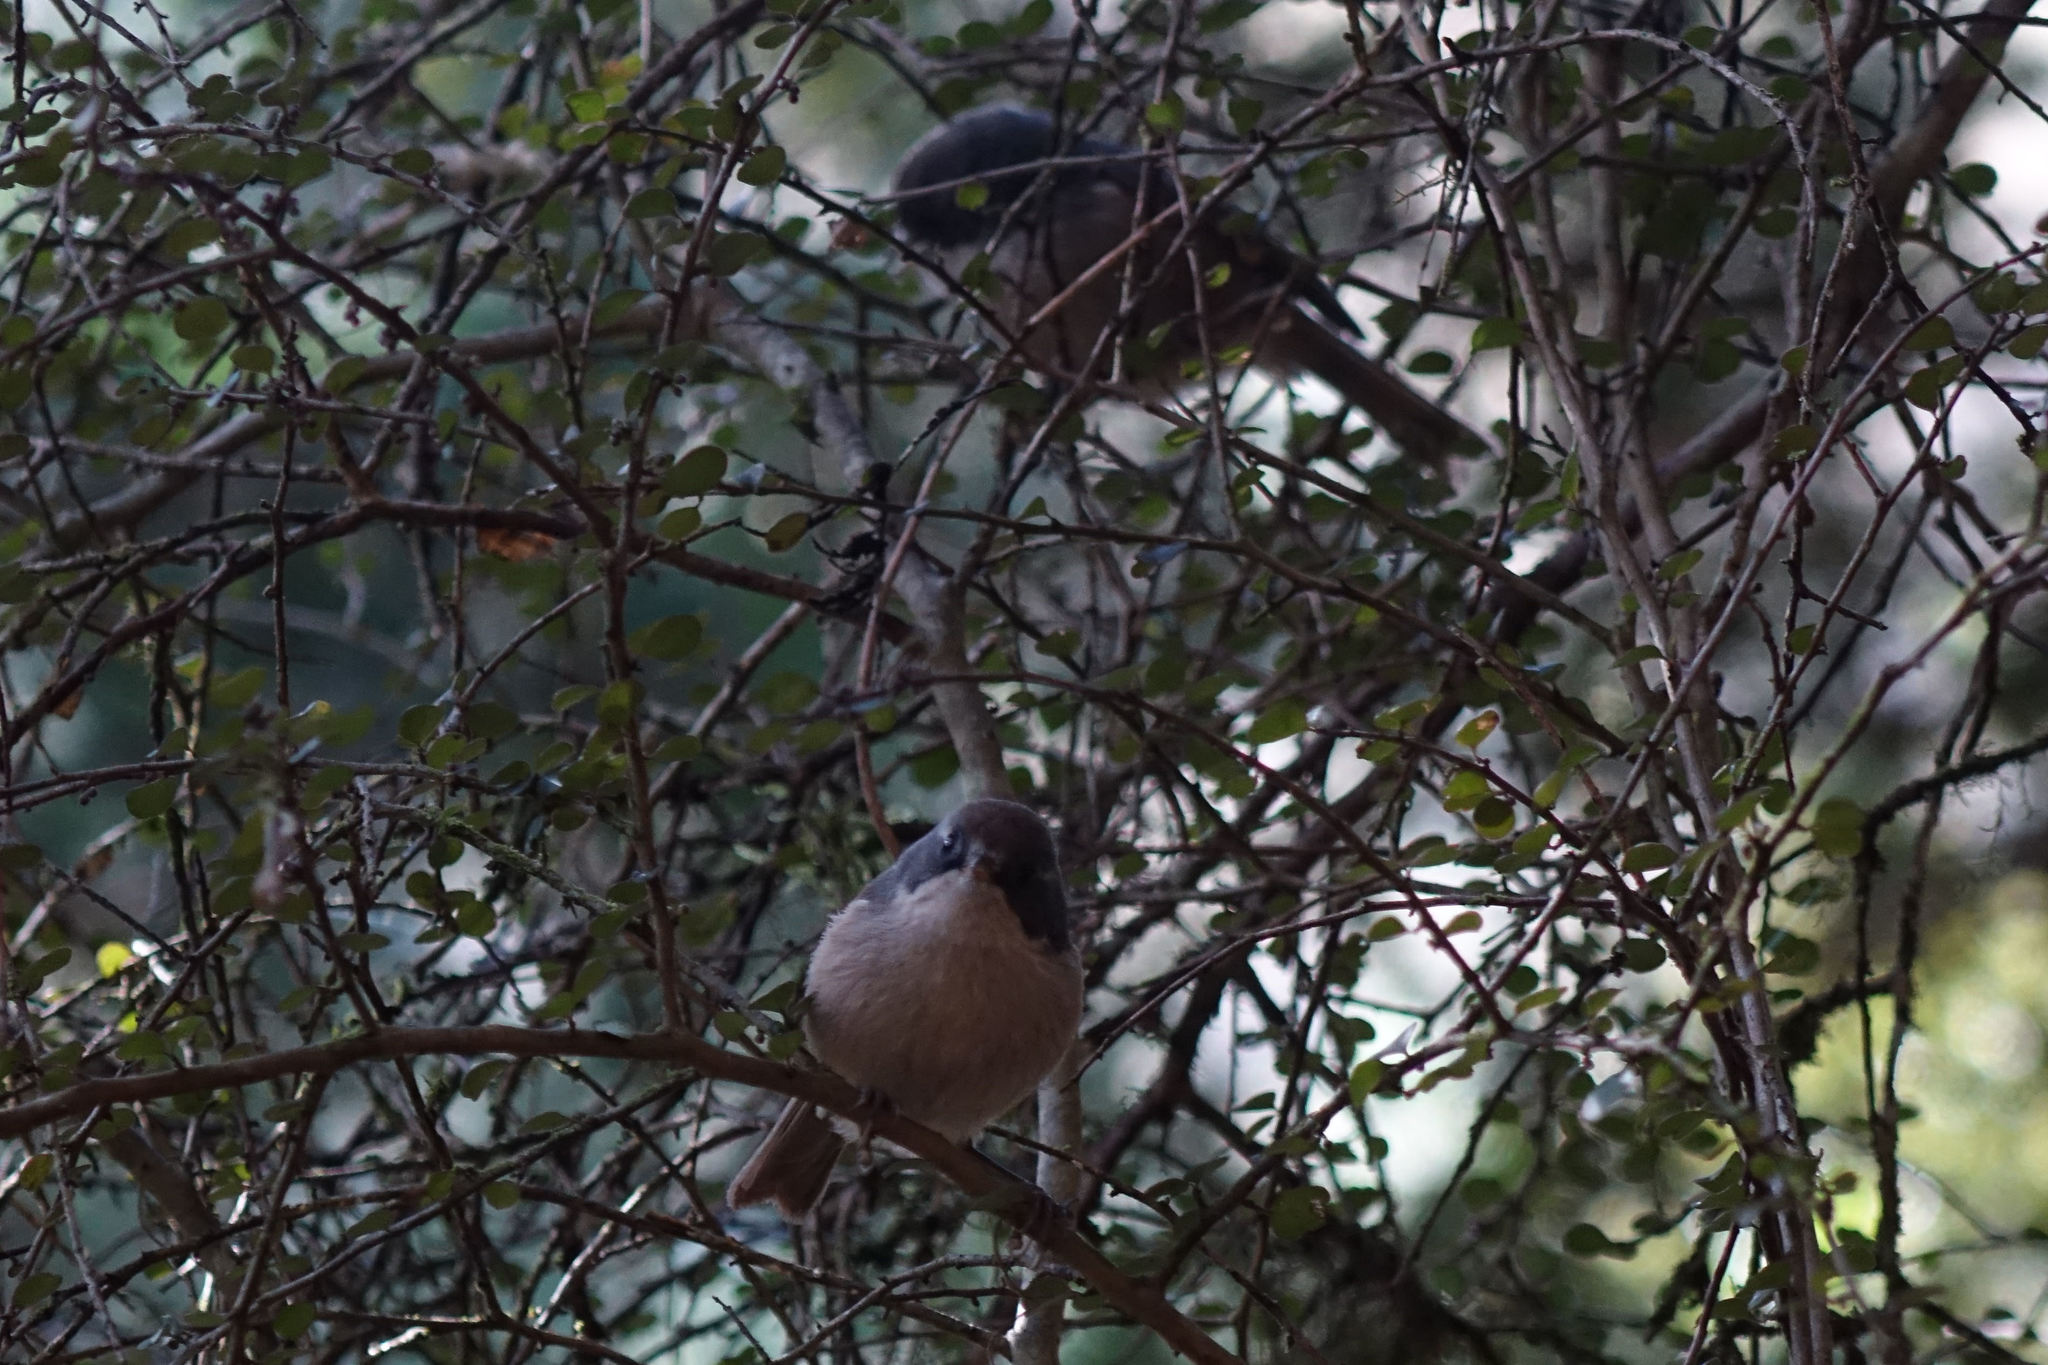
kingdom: Animalia
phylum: Chordata
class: Aves
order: Passeriformes
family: Acanthizidae
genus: Finschia
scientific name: Finschia novaeseelandiae
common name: Pipipi
